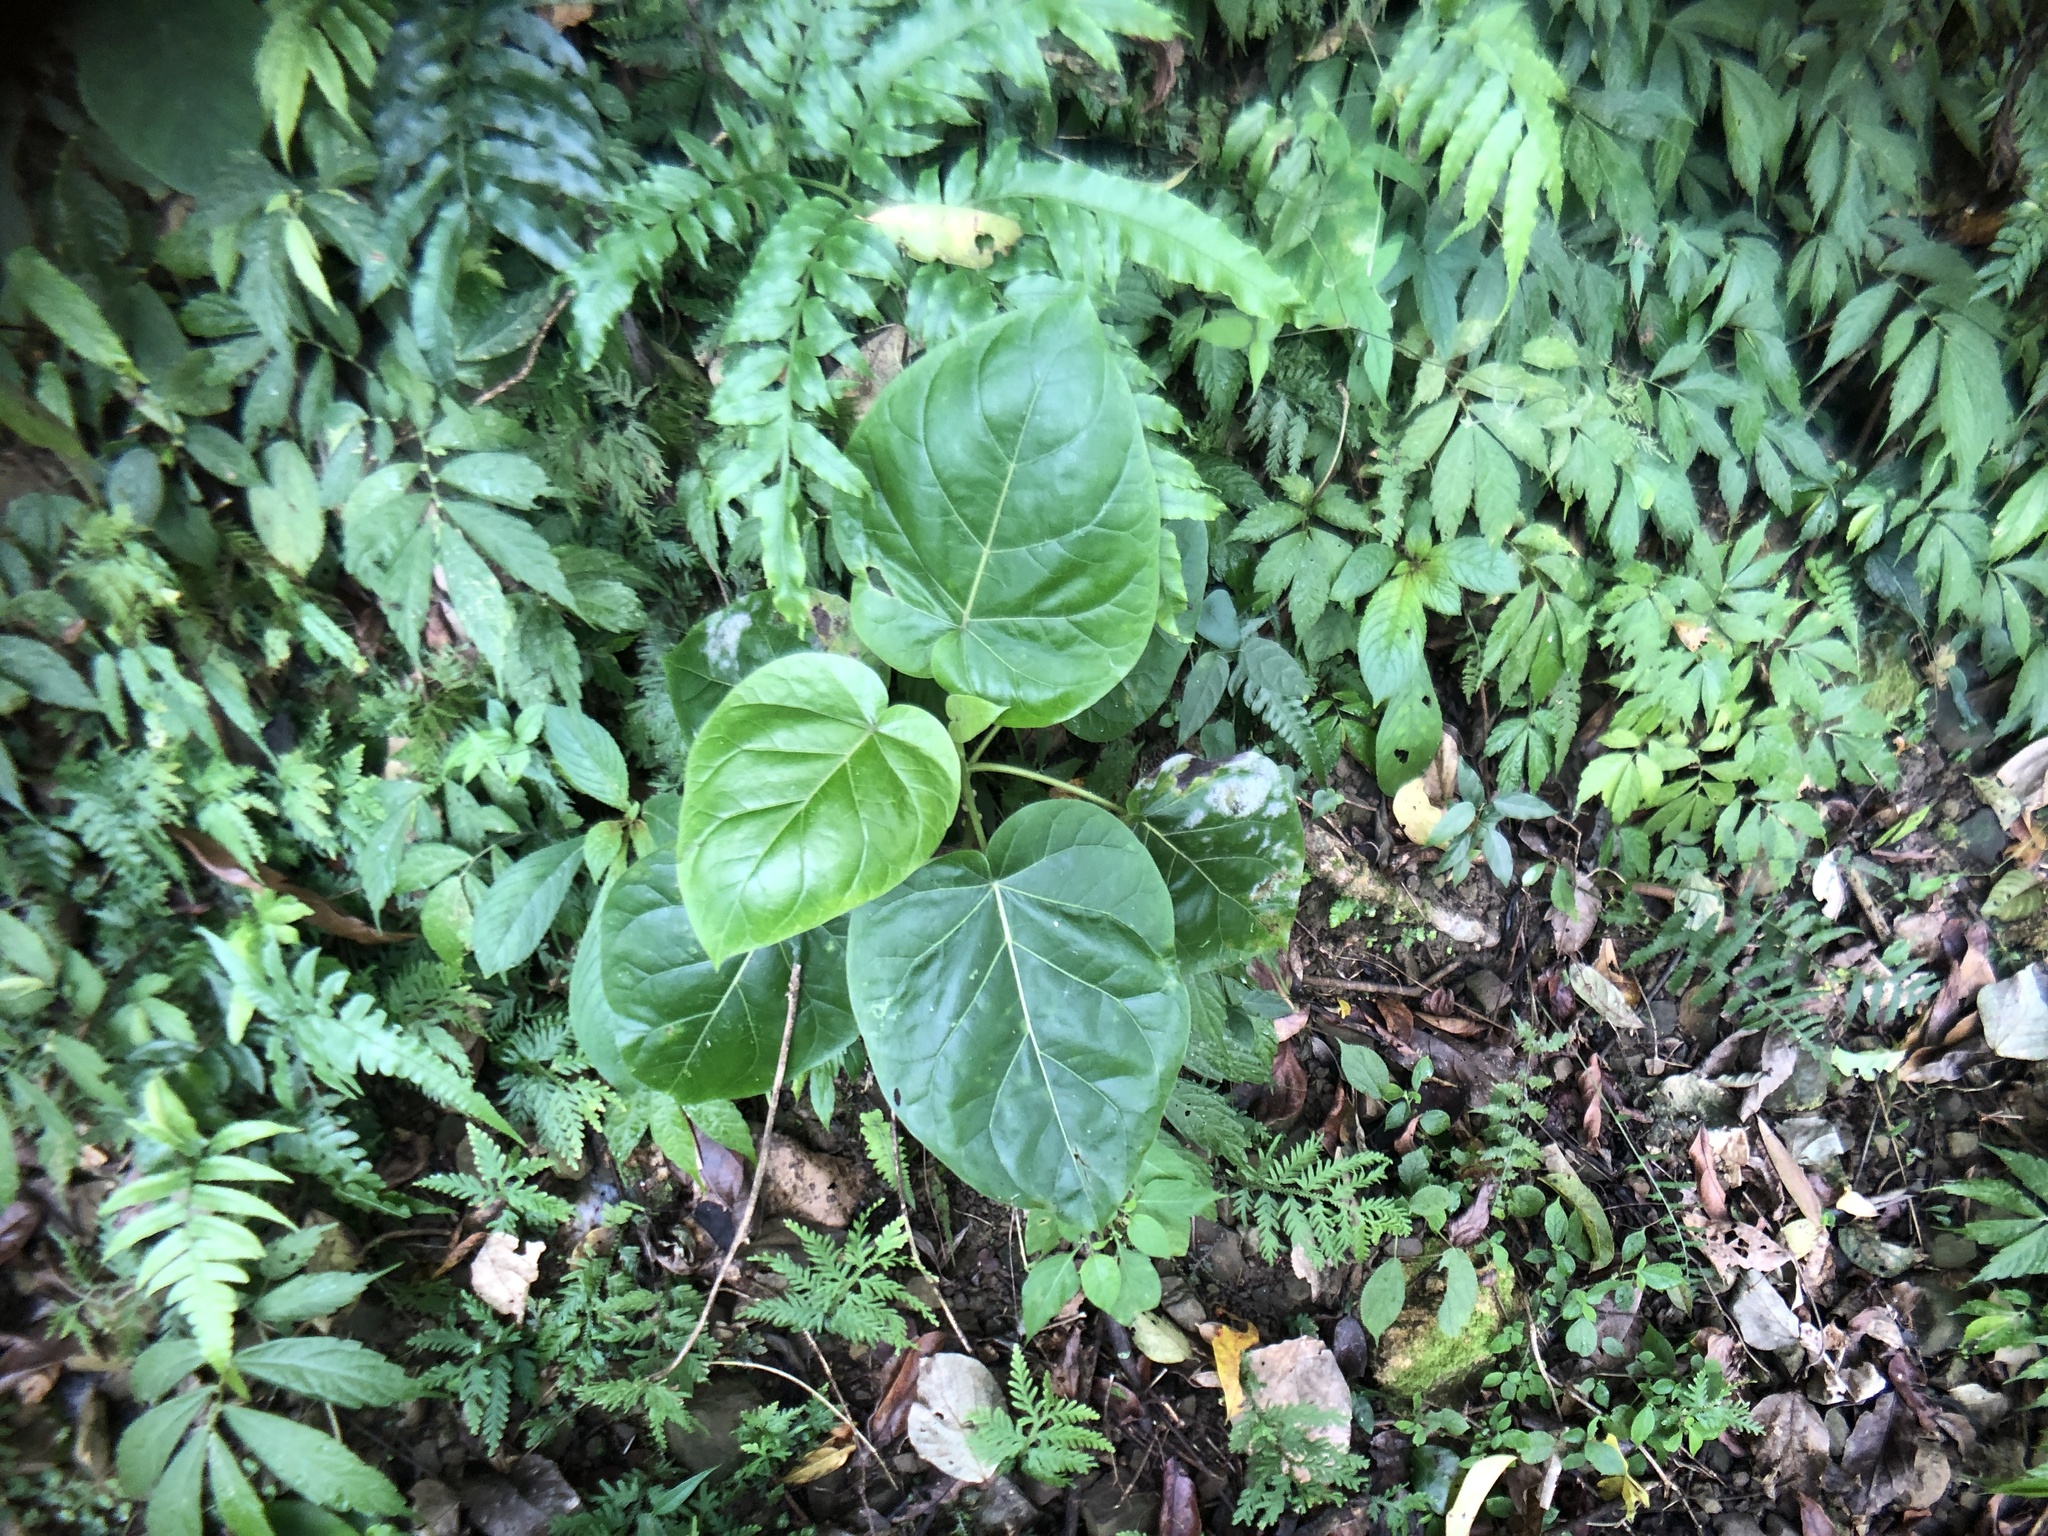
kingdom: Plantae
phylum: Tracheophyta
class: Magnoliopsida
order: Solanales
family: Solanaceae
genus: Solanum
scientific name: Solanum betaceum
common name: Tamarillo
